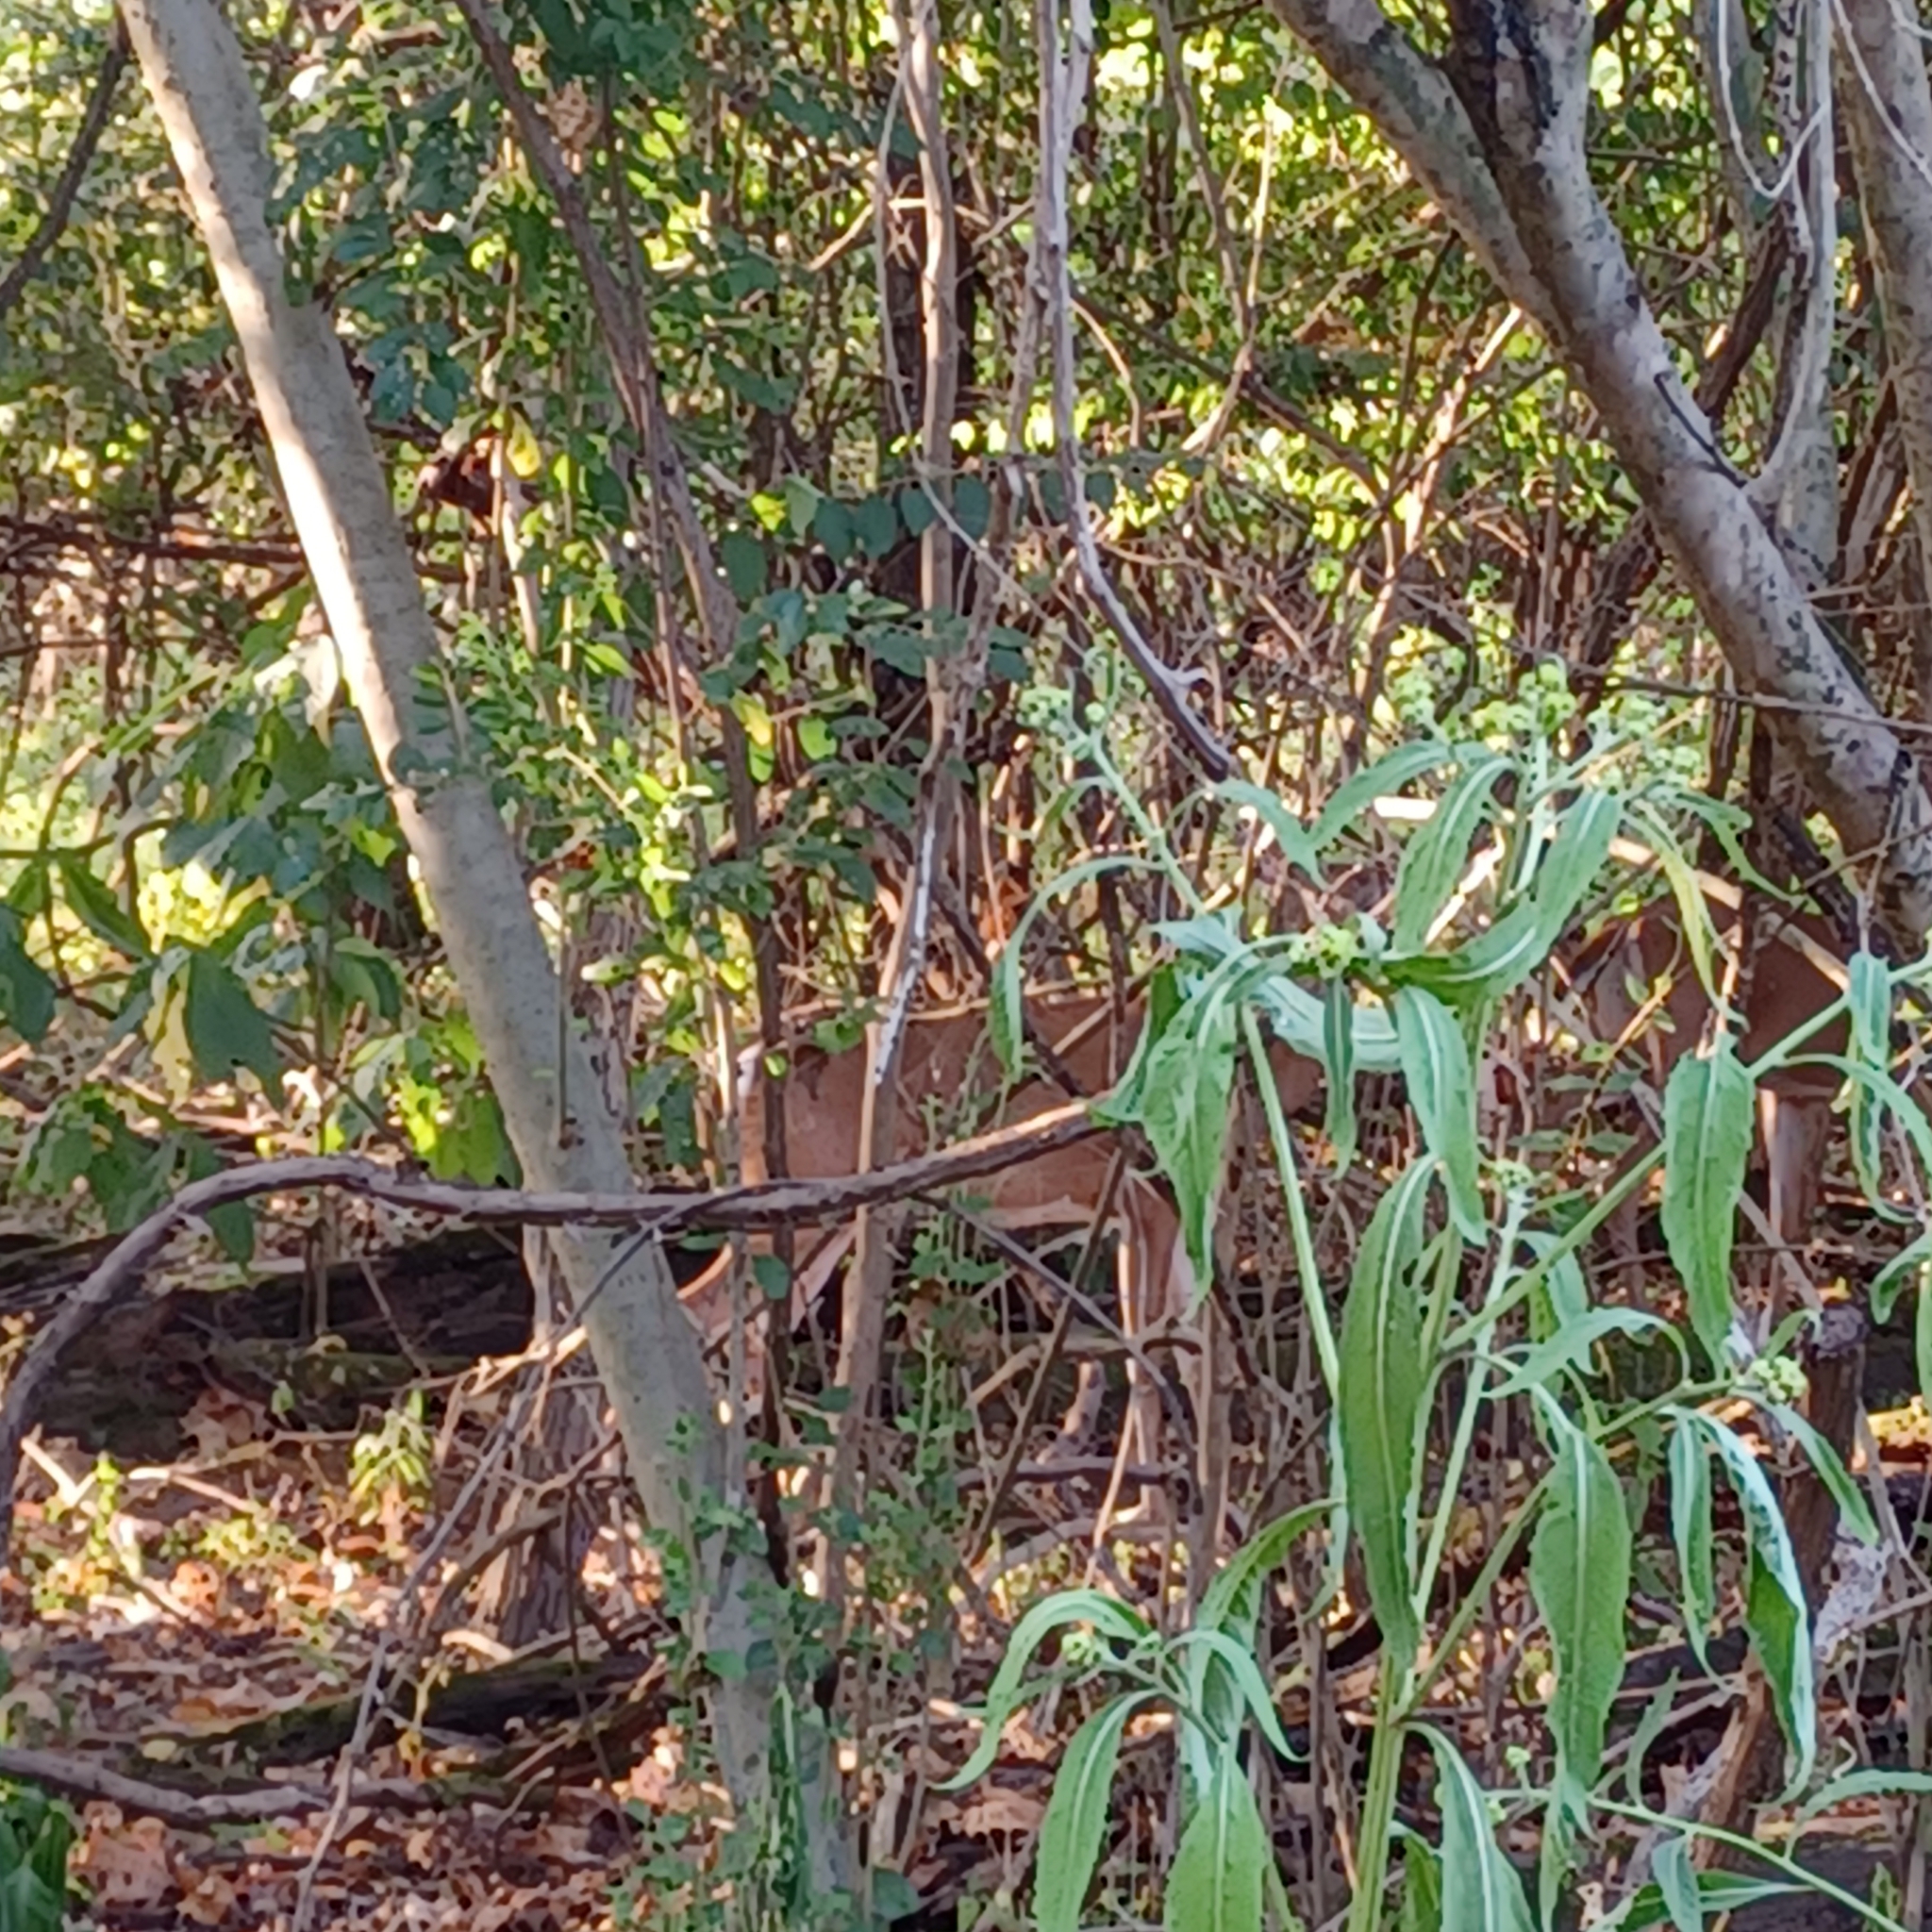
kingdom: Animalia
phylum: Chordata
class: Mammalia
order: Artiodactyla
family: Cervidae
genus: Odocoileus
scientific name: Odocoileus virginianus
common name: White-tailed deer
